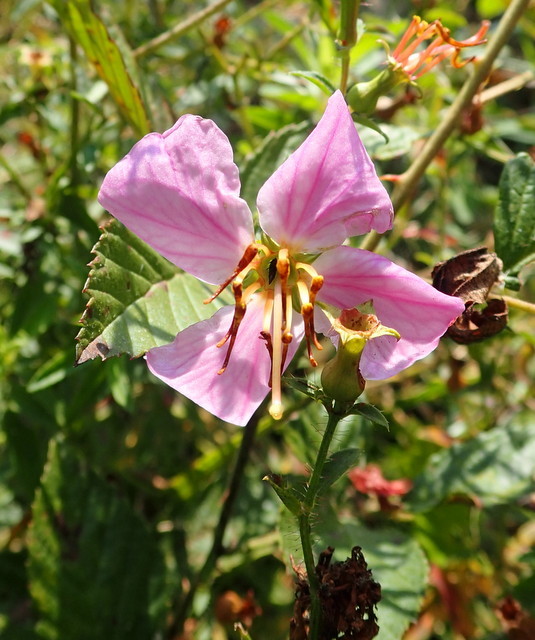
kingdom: Plantae
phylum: Tracheophyta
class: Magnoliopsida
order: Myrtales
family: Melastomataceae
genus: Rhexia
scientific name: Rhexia mariana
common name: Dull meadow-pitcher
